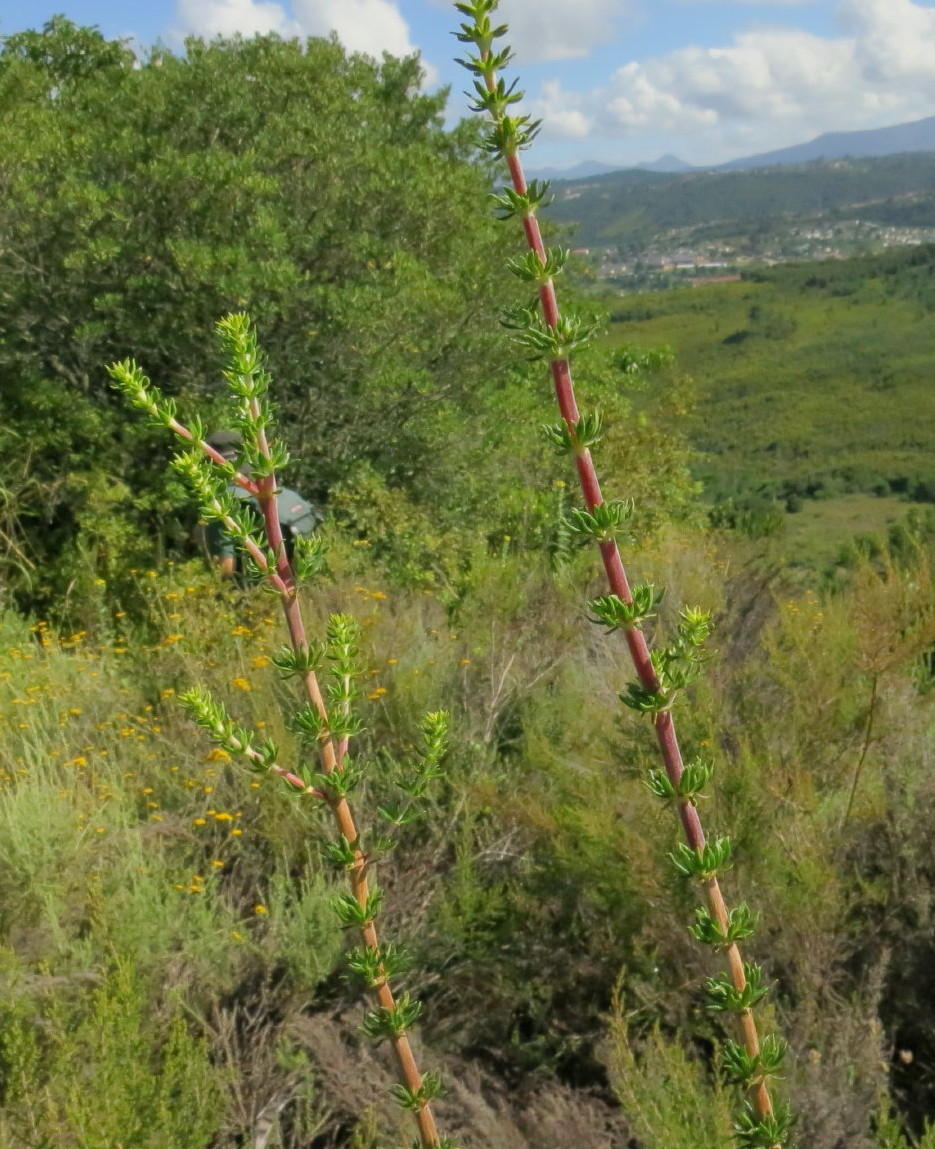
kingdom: Plantae
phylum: Tracheophyta
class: Magnoliopsida
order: Gentianales
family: Rubiaceae
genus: Anthospermum
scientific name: Anthospermum aethiopicum
